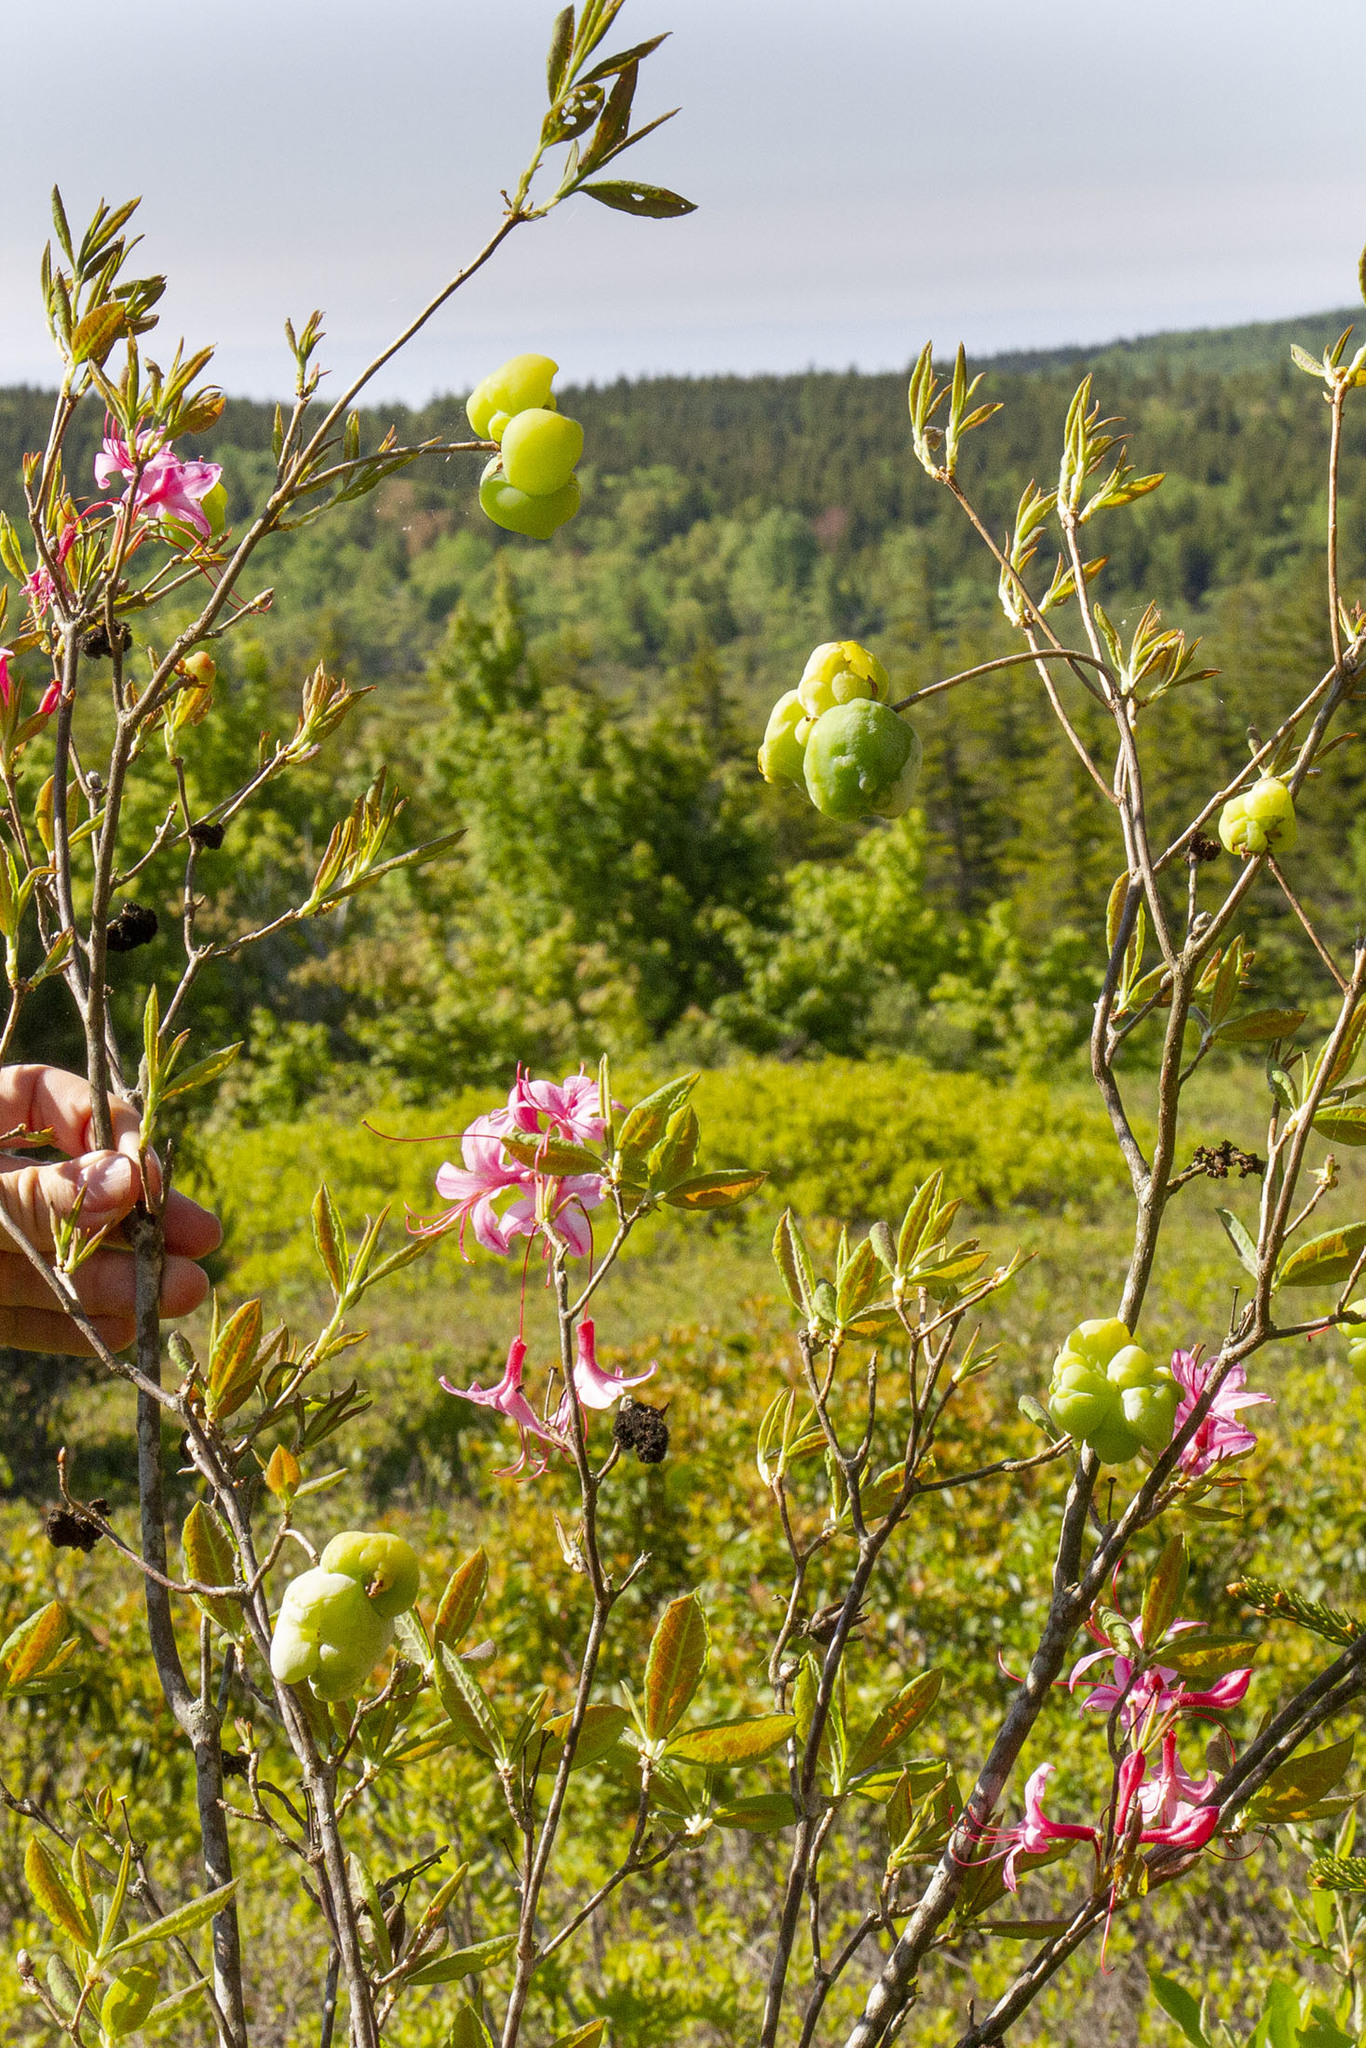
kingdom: Fungi
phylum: Basidiomycota
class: Exobasidiomycetes
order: Exobasidiales
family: Exobasidiaceae
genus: Exobasidium
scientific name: Exobasidium rhododendri
